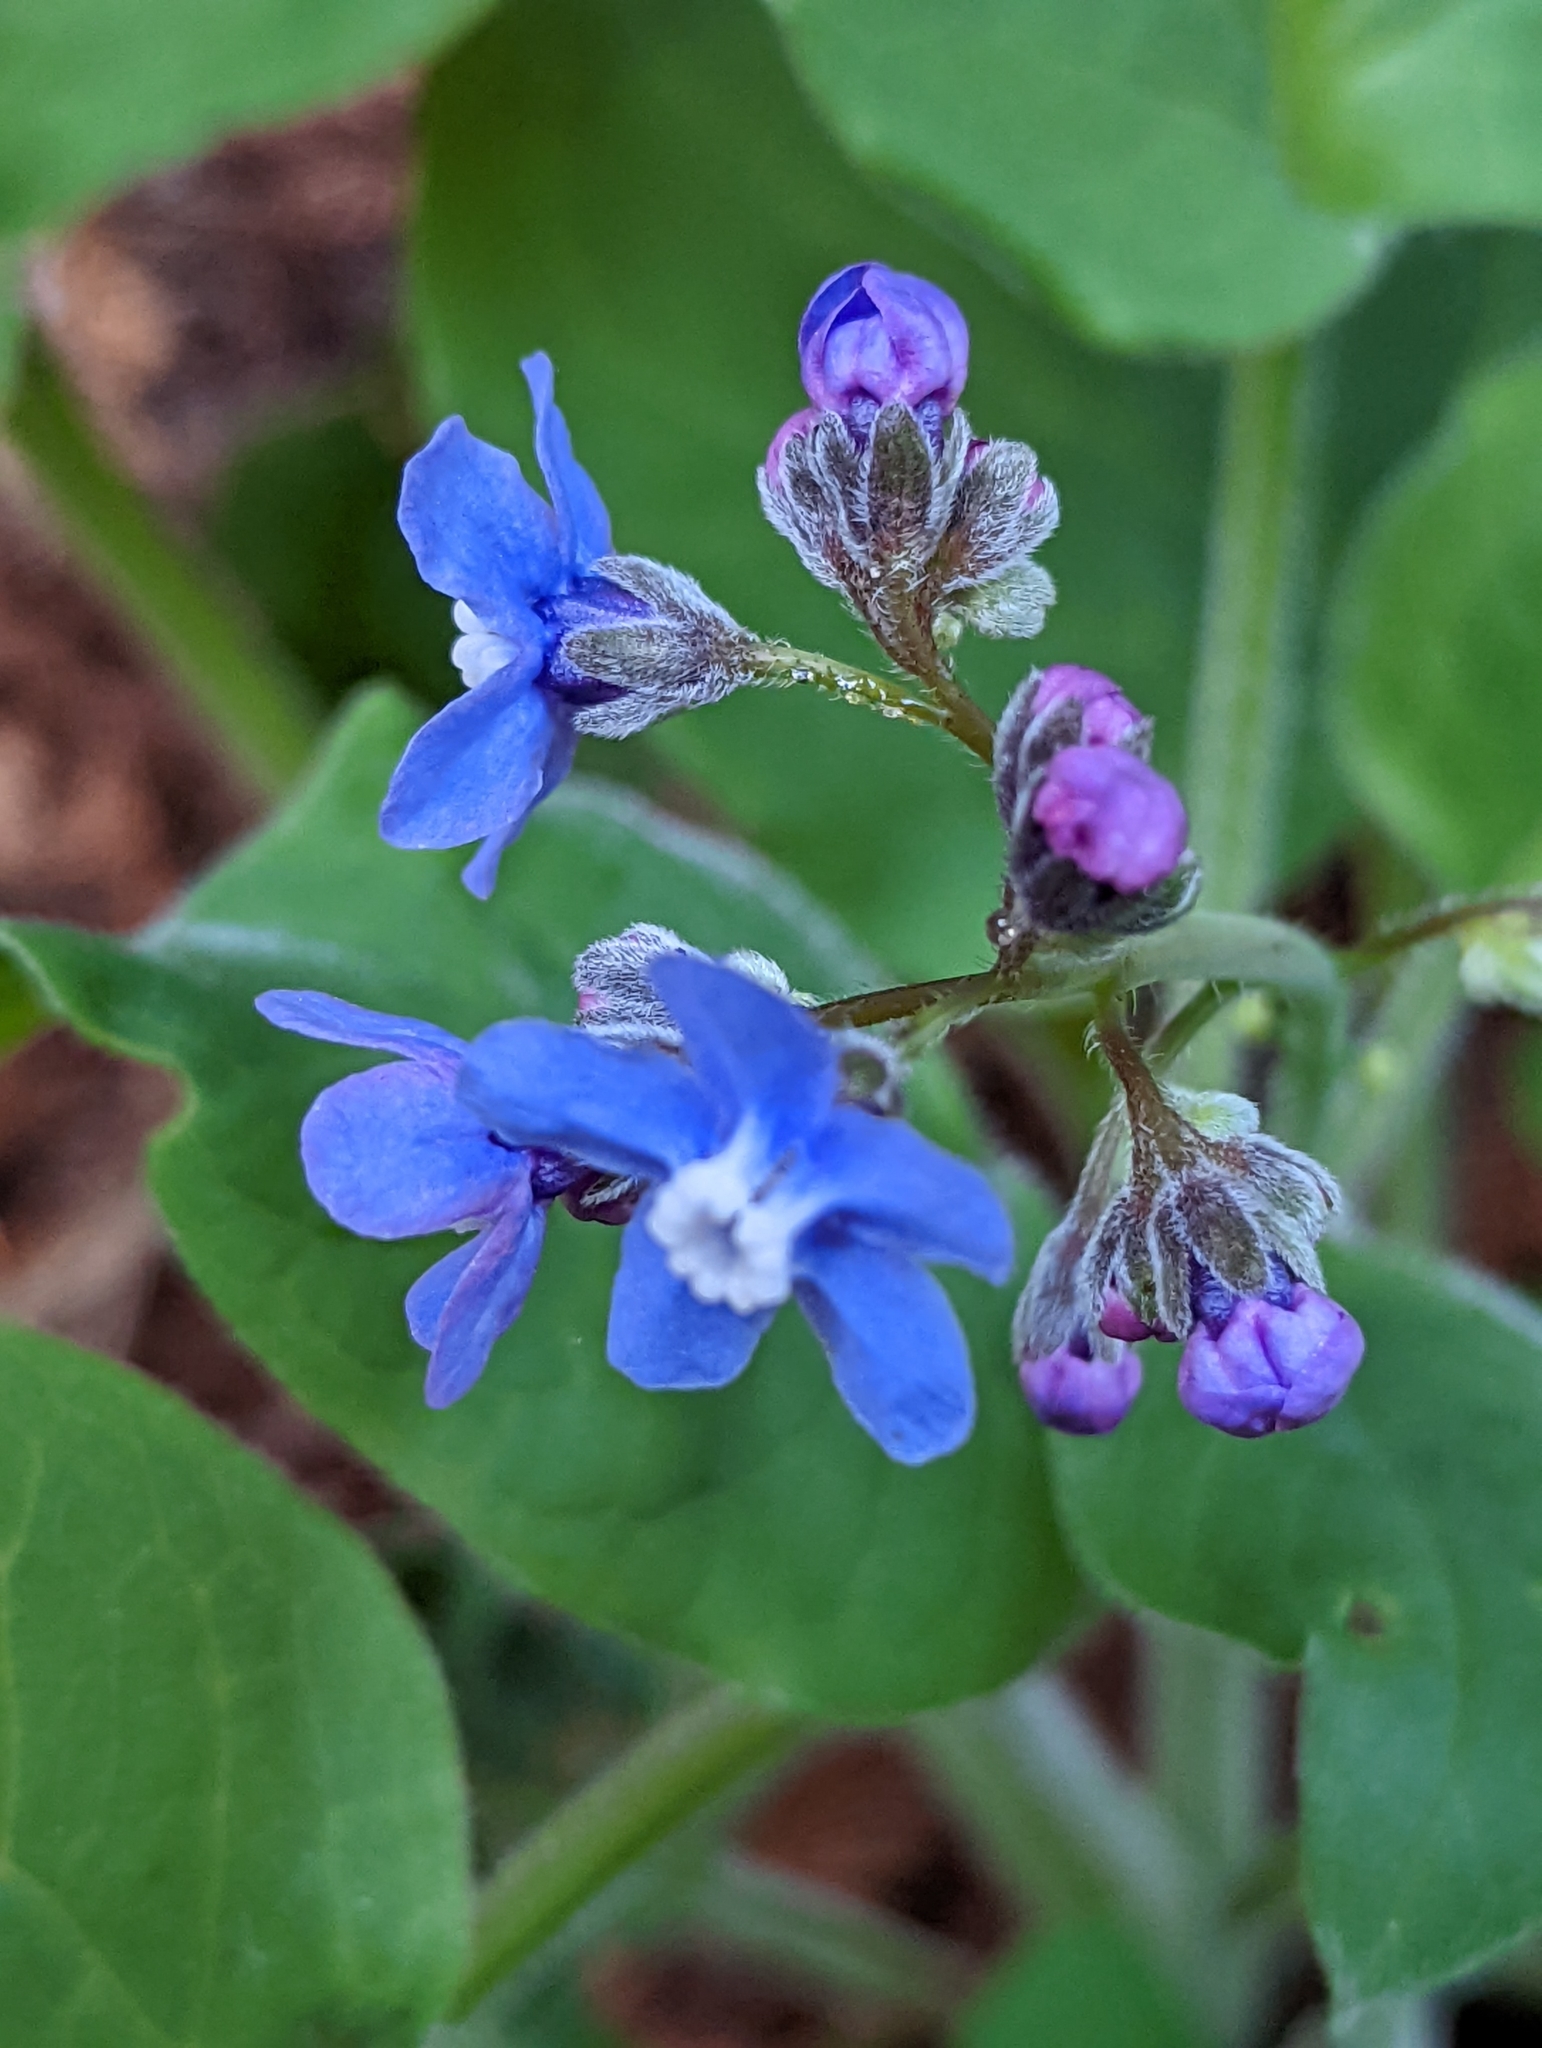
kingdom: Plantae
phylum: Tracheophyta
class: Magnoliopsida
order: Boraginales
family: Boraginaceae
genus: Adelinia
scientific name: Adelinia grande
